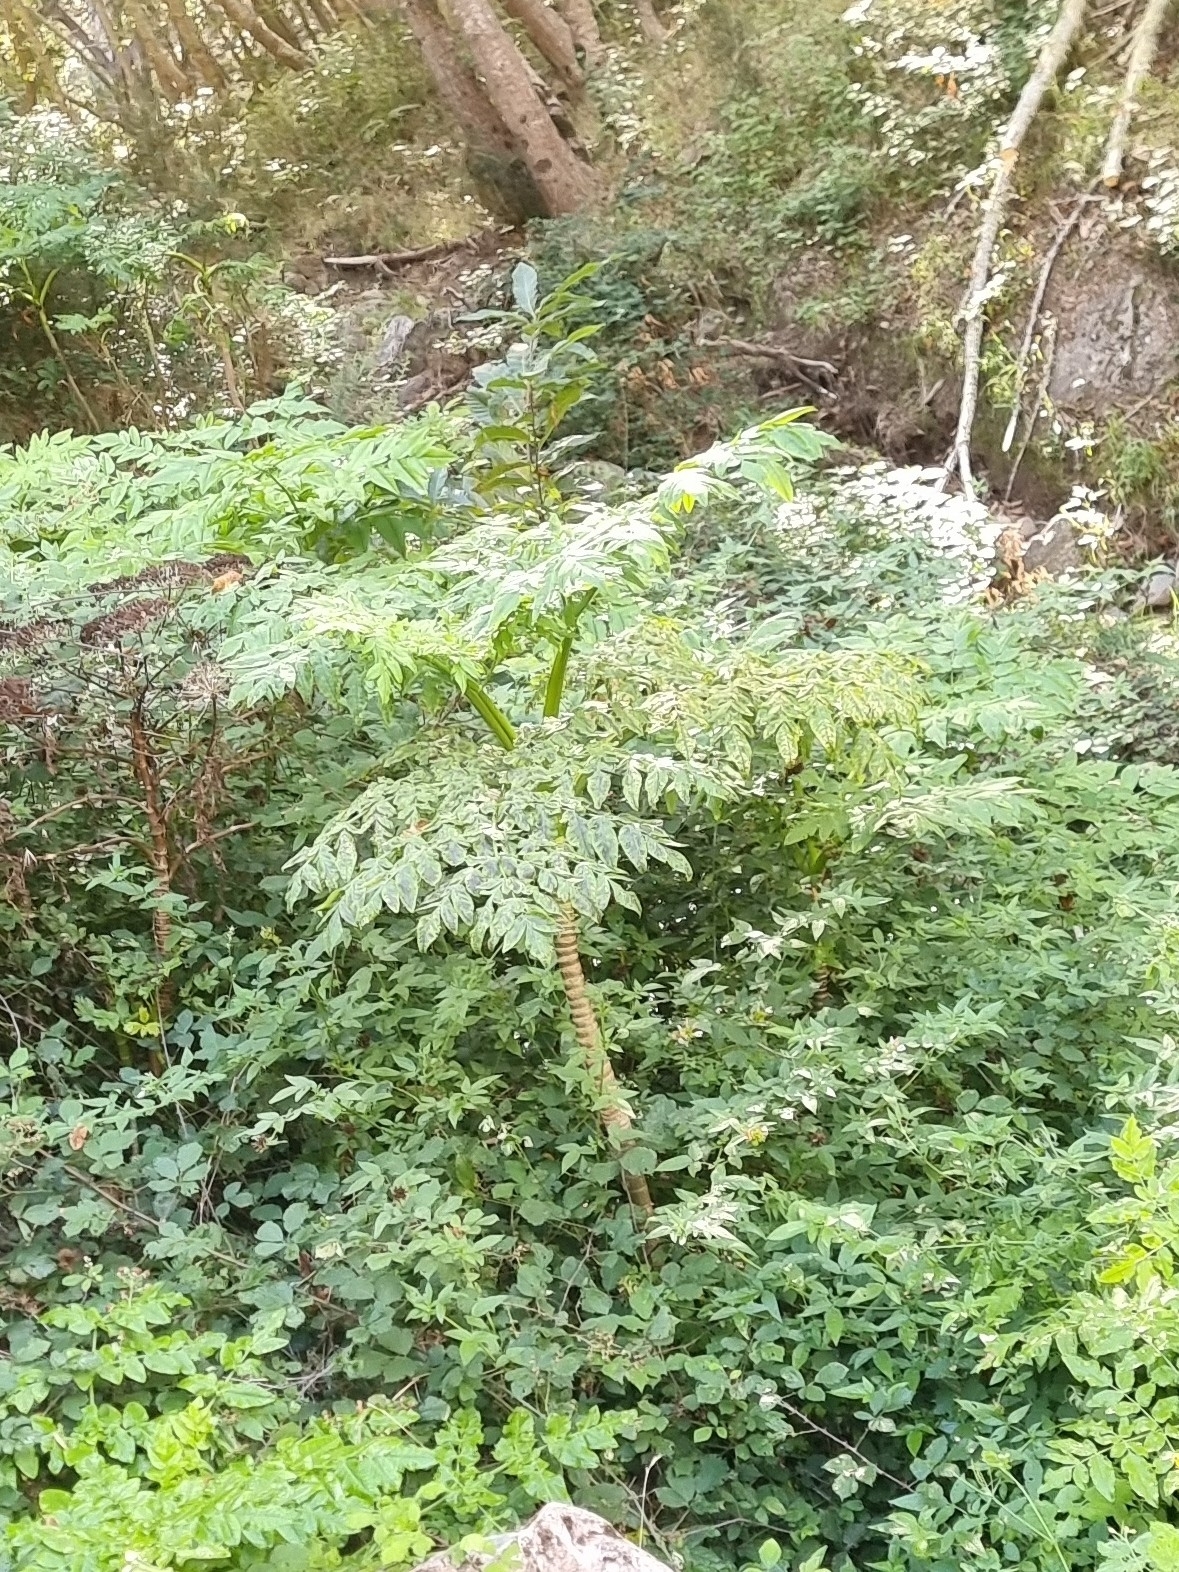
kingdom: Plantae
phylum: Tracheophyta
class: Magnoliopsida
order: Apiales
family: Apiaceae
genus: Daucus
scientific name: Daucus decipiens
